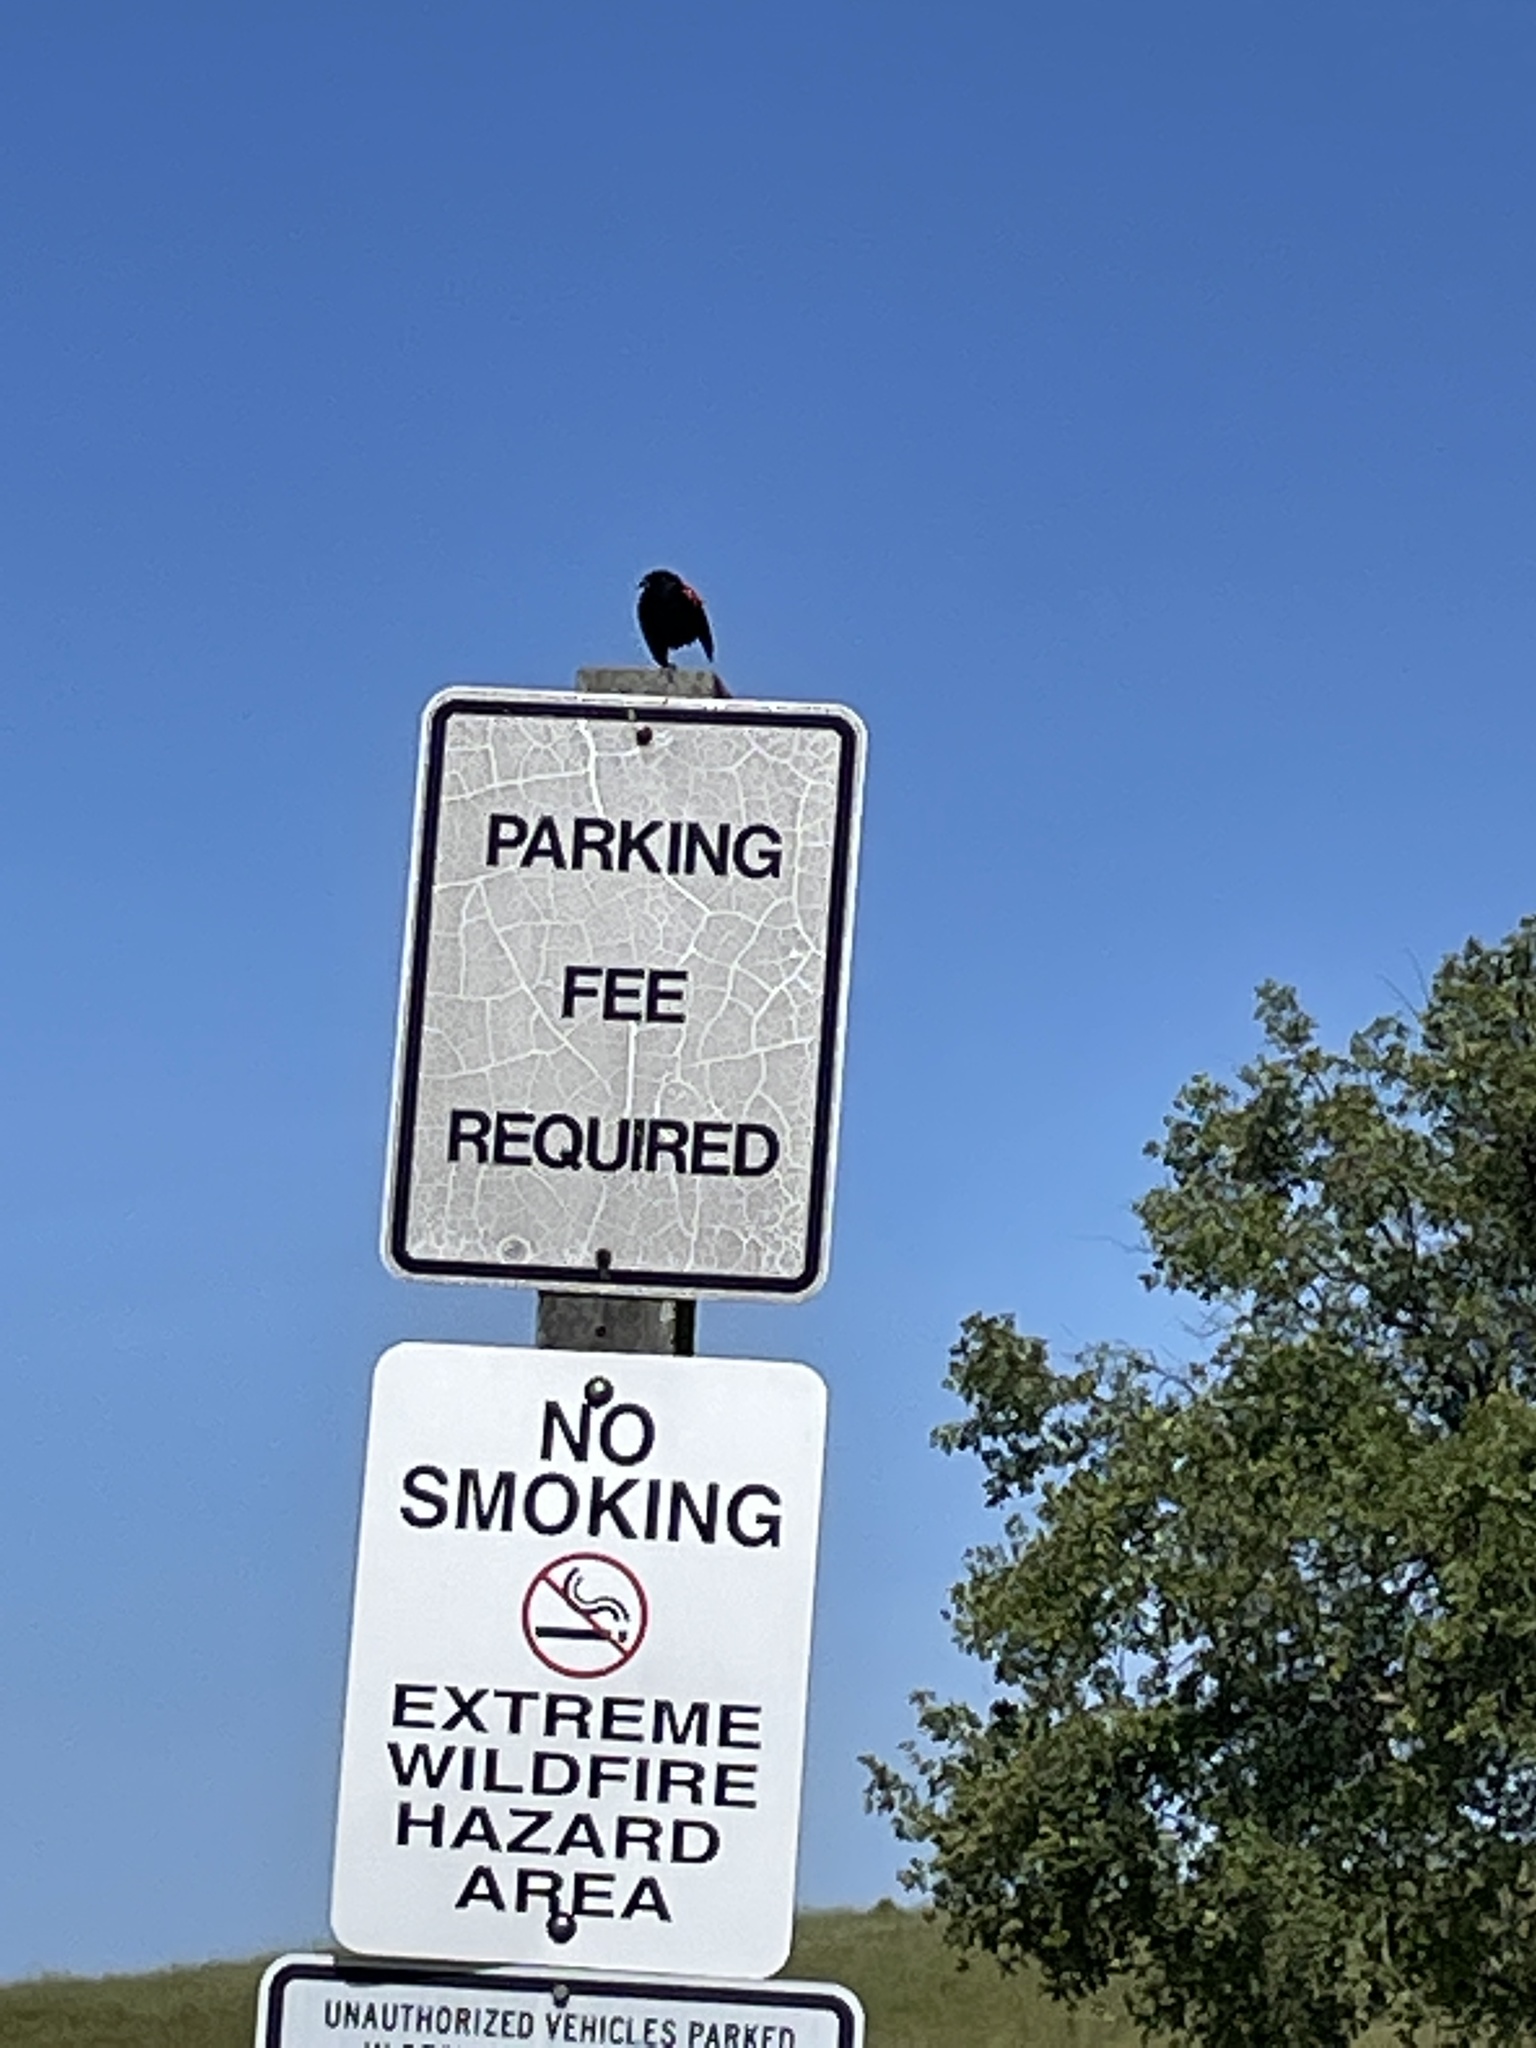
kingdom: Animalia
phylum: Chordata
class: Aves
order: Passeriformes
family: Icteridae
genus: Agelaius
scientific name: Agelaius phoeniceus
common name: Red-winged blackbird
